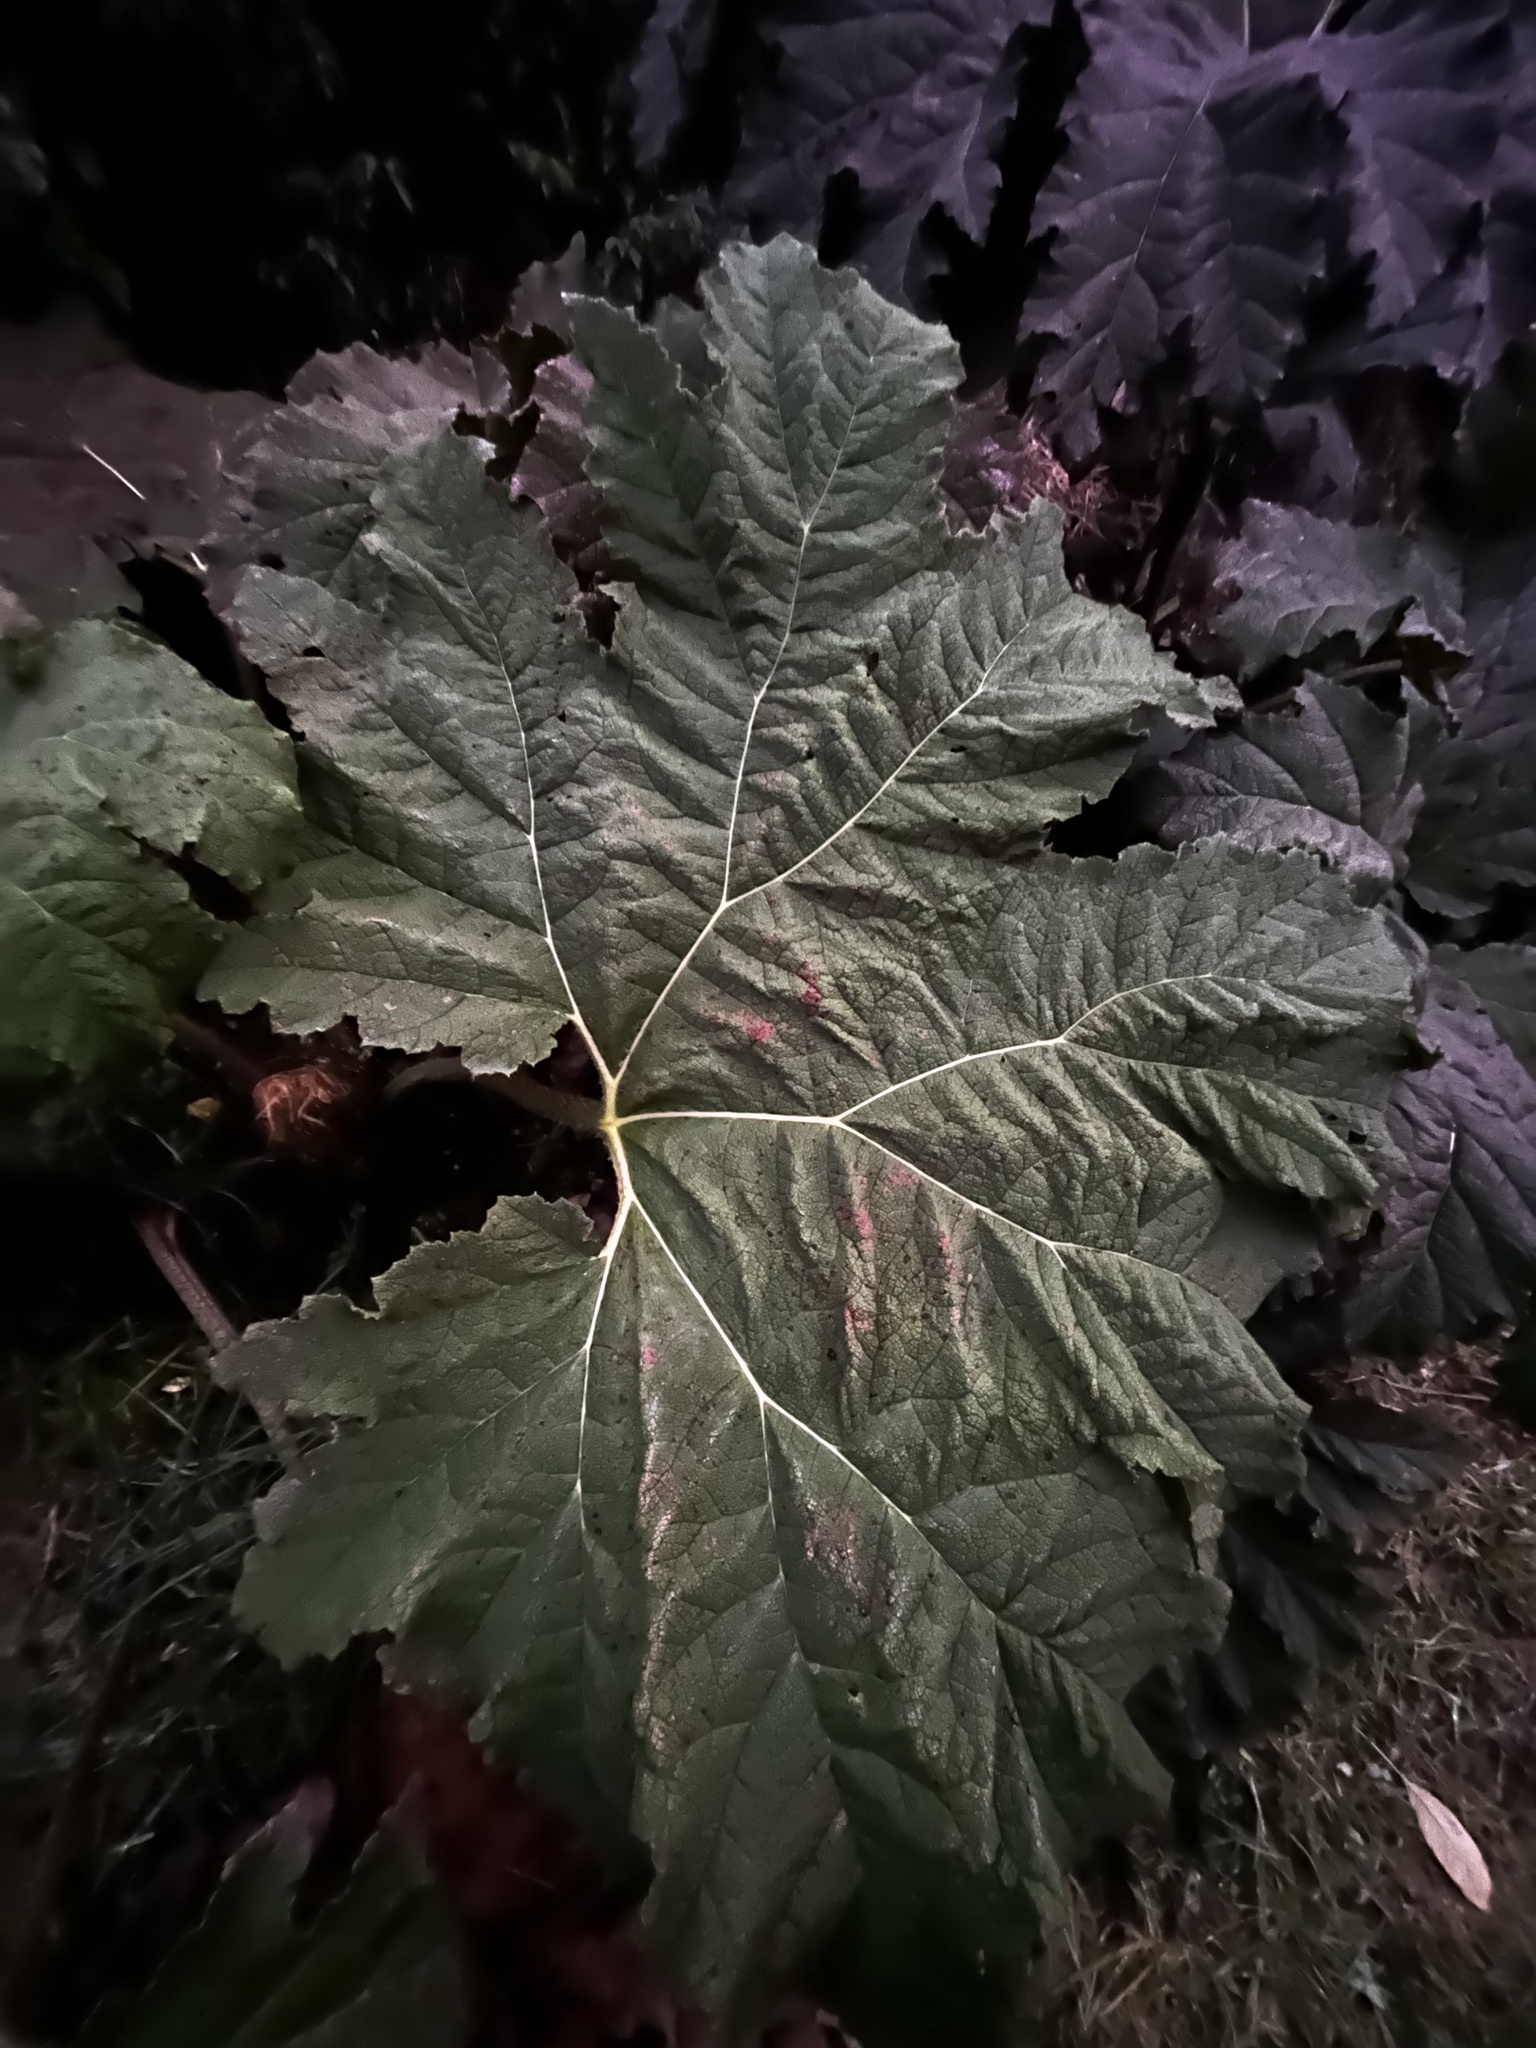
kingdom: Plantae
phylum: Tracheophyta
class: Magnoliopsida
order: Gunnerales
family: Gunneraceae
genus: Gunnera
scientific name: Gunnera tinctoria
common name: Giant-rhubarb
